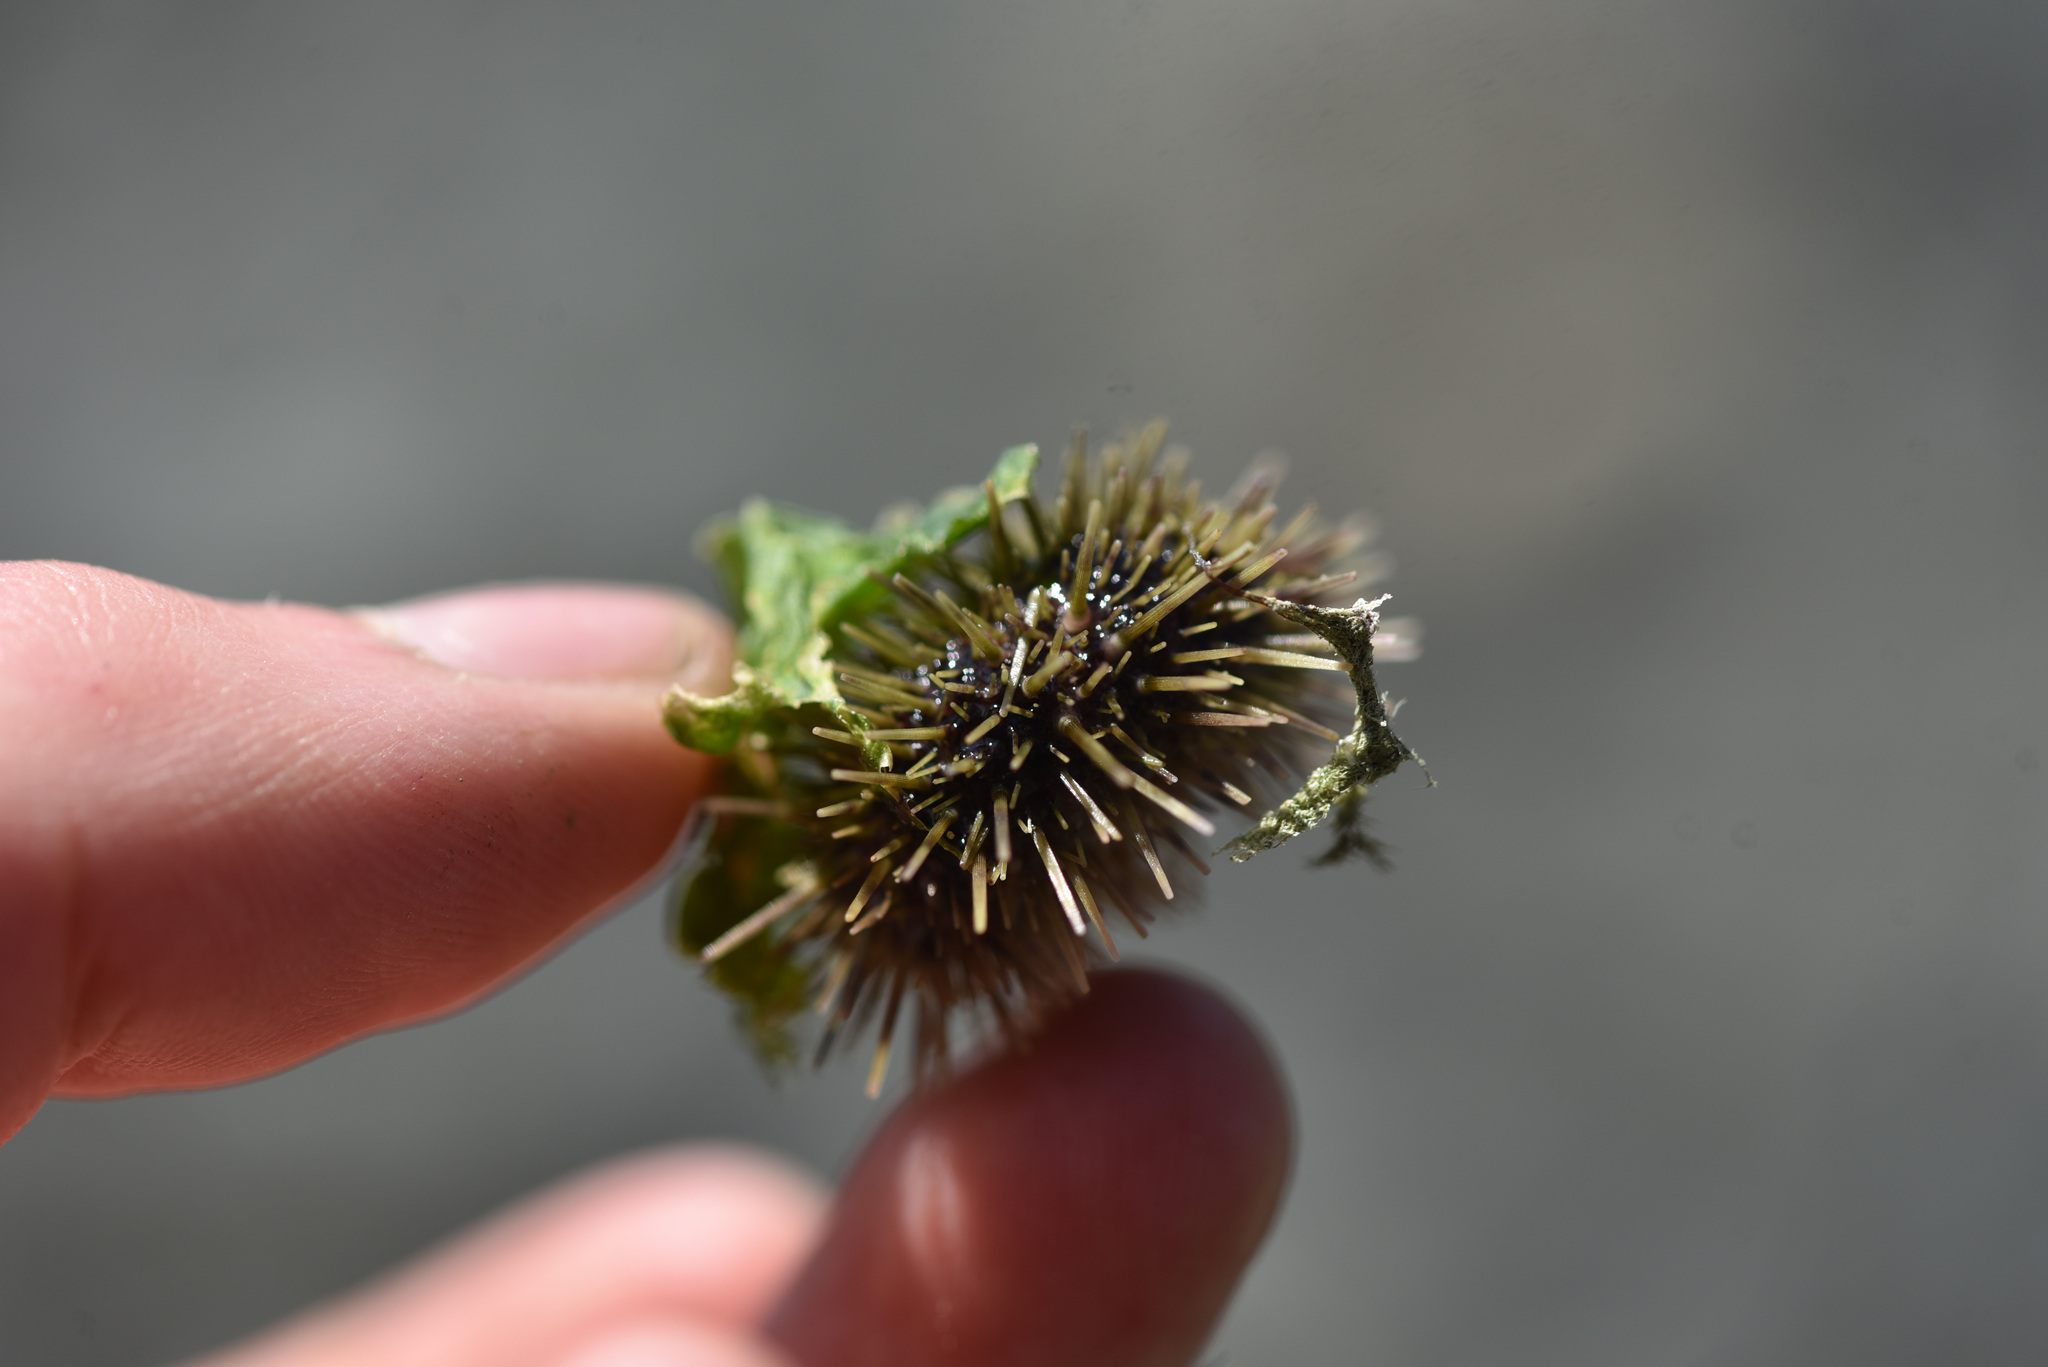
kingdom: Animalia
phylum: Echinodermata
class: Echinoidea
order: Camarodonta
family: Strongylocentrotidae
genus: Strongylocentrotus
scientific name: Strongylocentrotus droebachiensis
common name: Northern sea urchin
